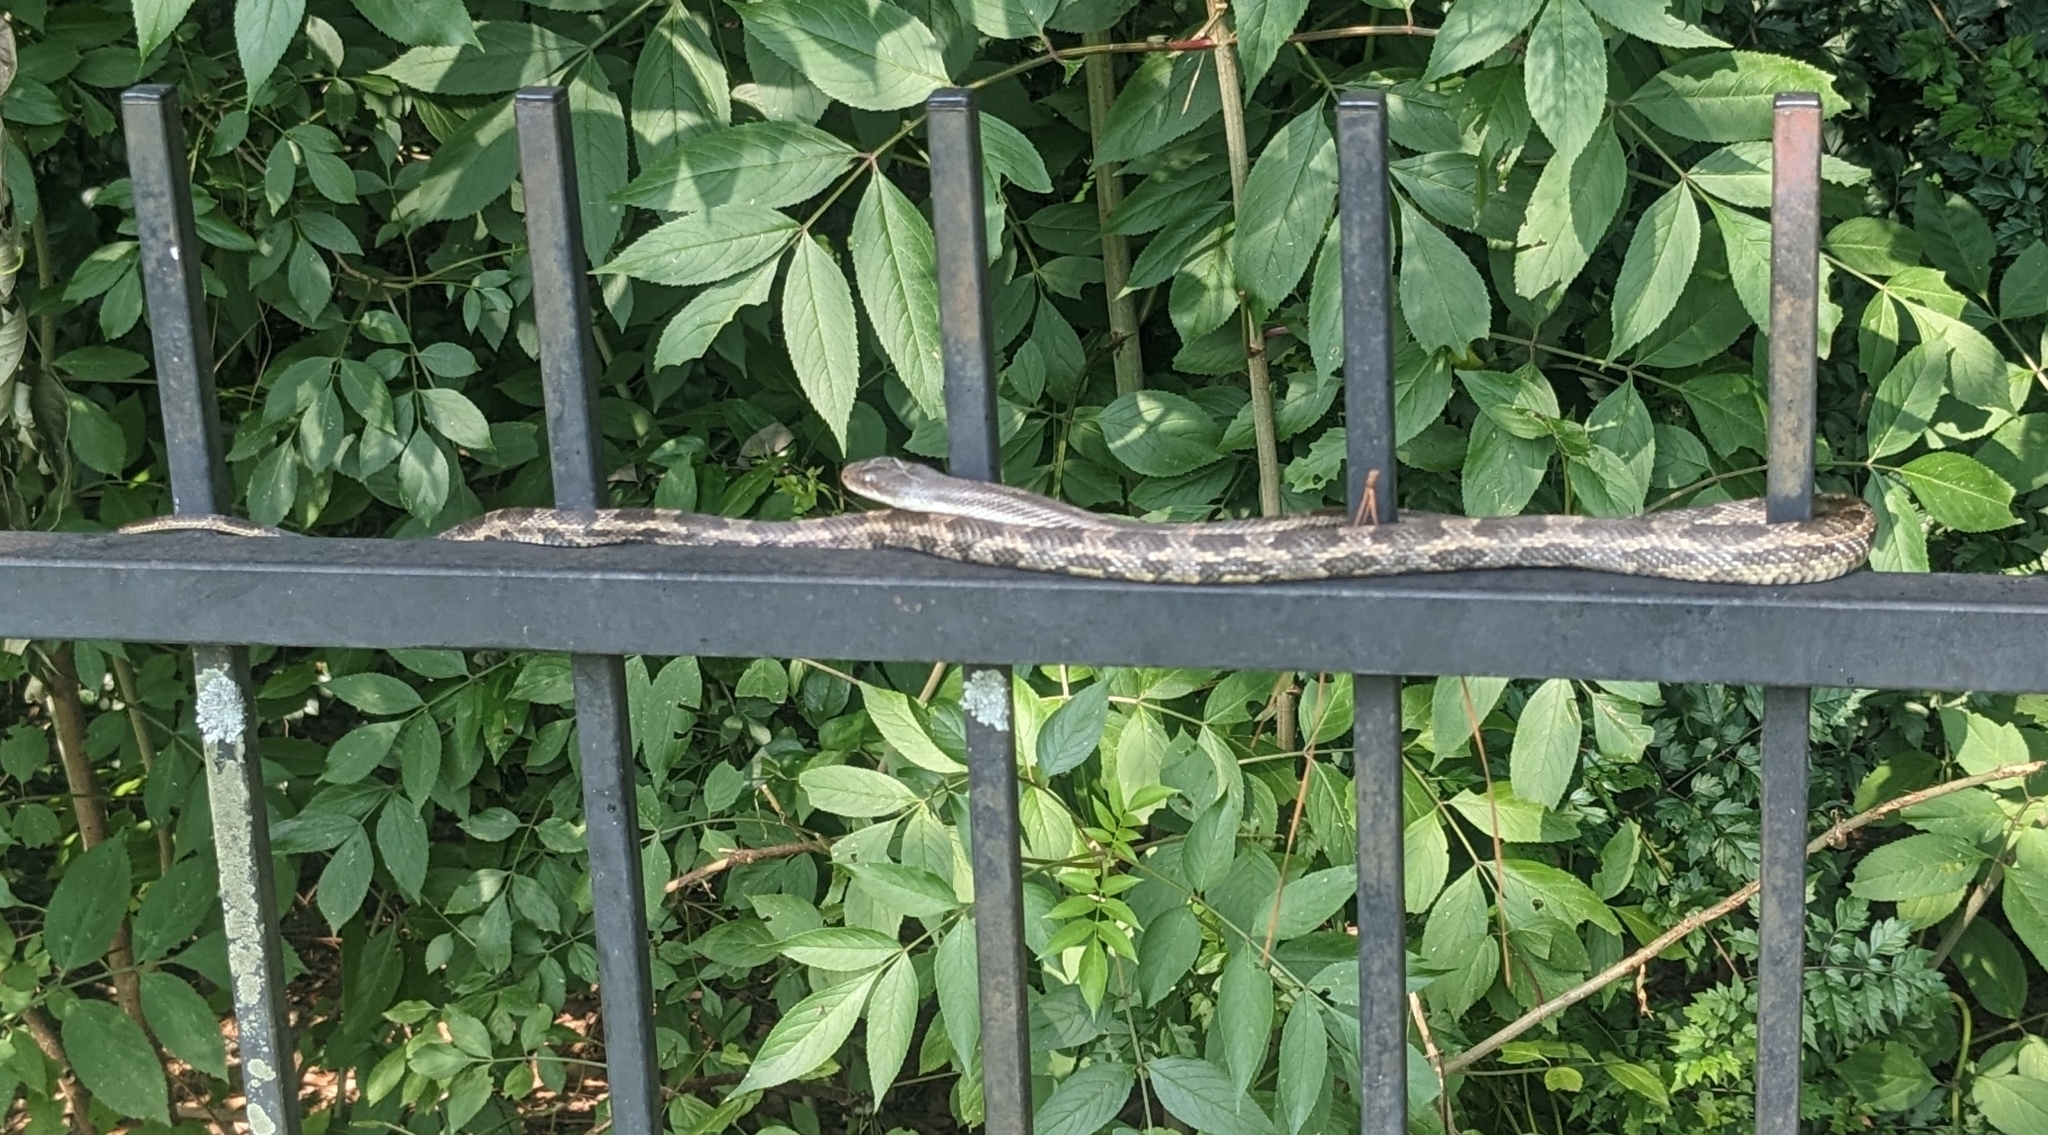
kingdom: Animalia
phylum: Chordata
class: Squamata
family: Colubridae
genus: Pantherophis
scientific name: Pantherophis obsoletus
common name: Black rat snake
